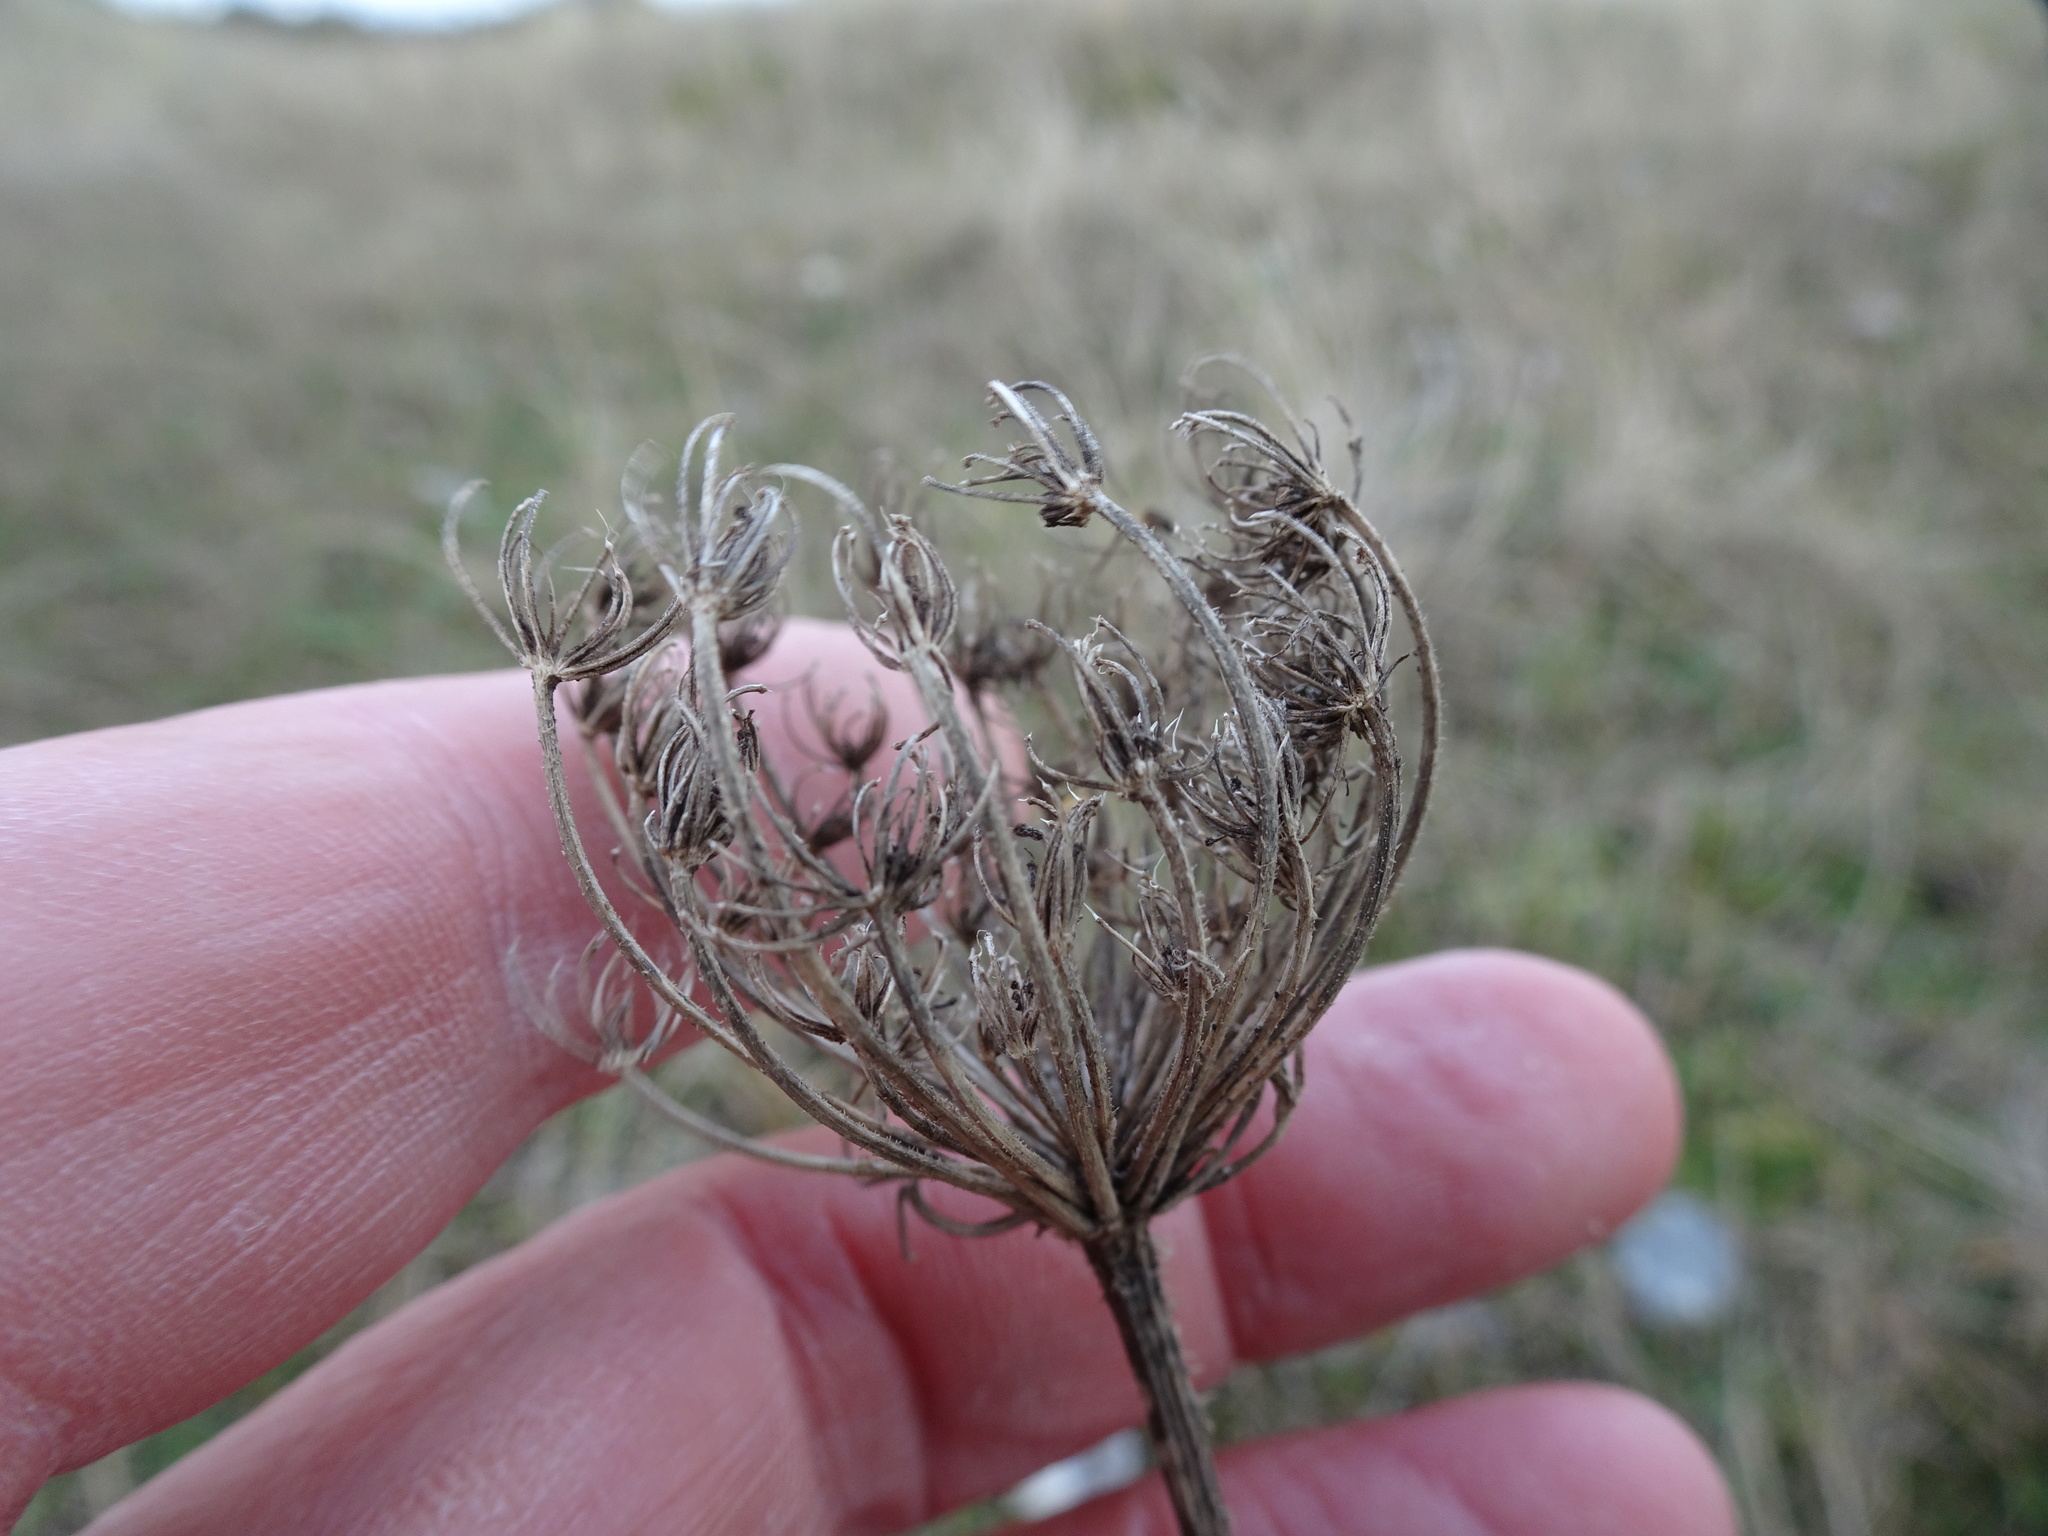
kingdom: Plantae
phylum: Tracheophyta
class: Magnoliopsida
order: Apiales
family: Apiaceae
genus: Daucus
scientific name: Daucus carota
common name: Wild carrot
